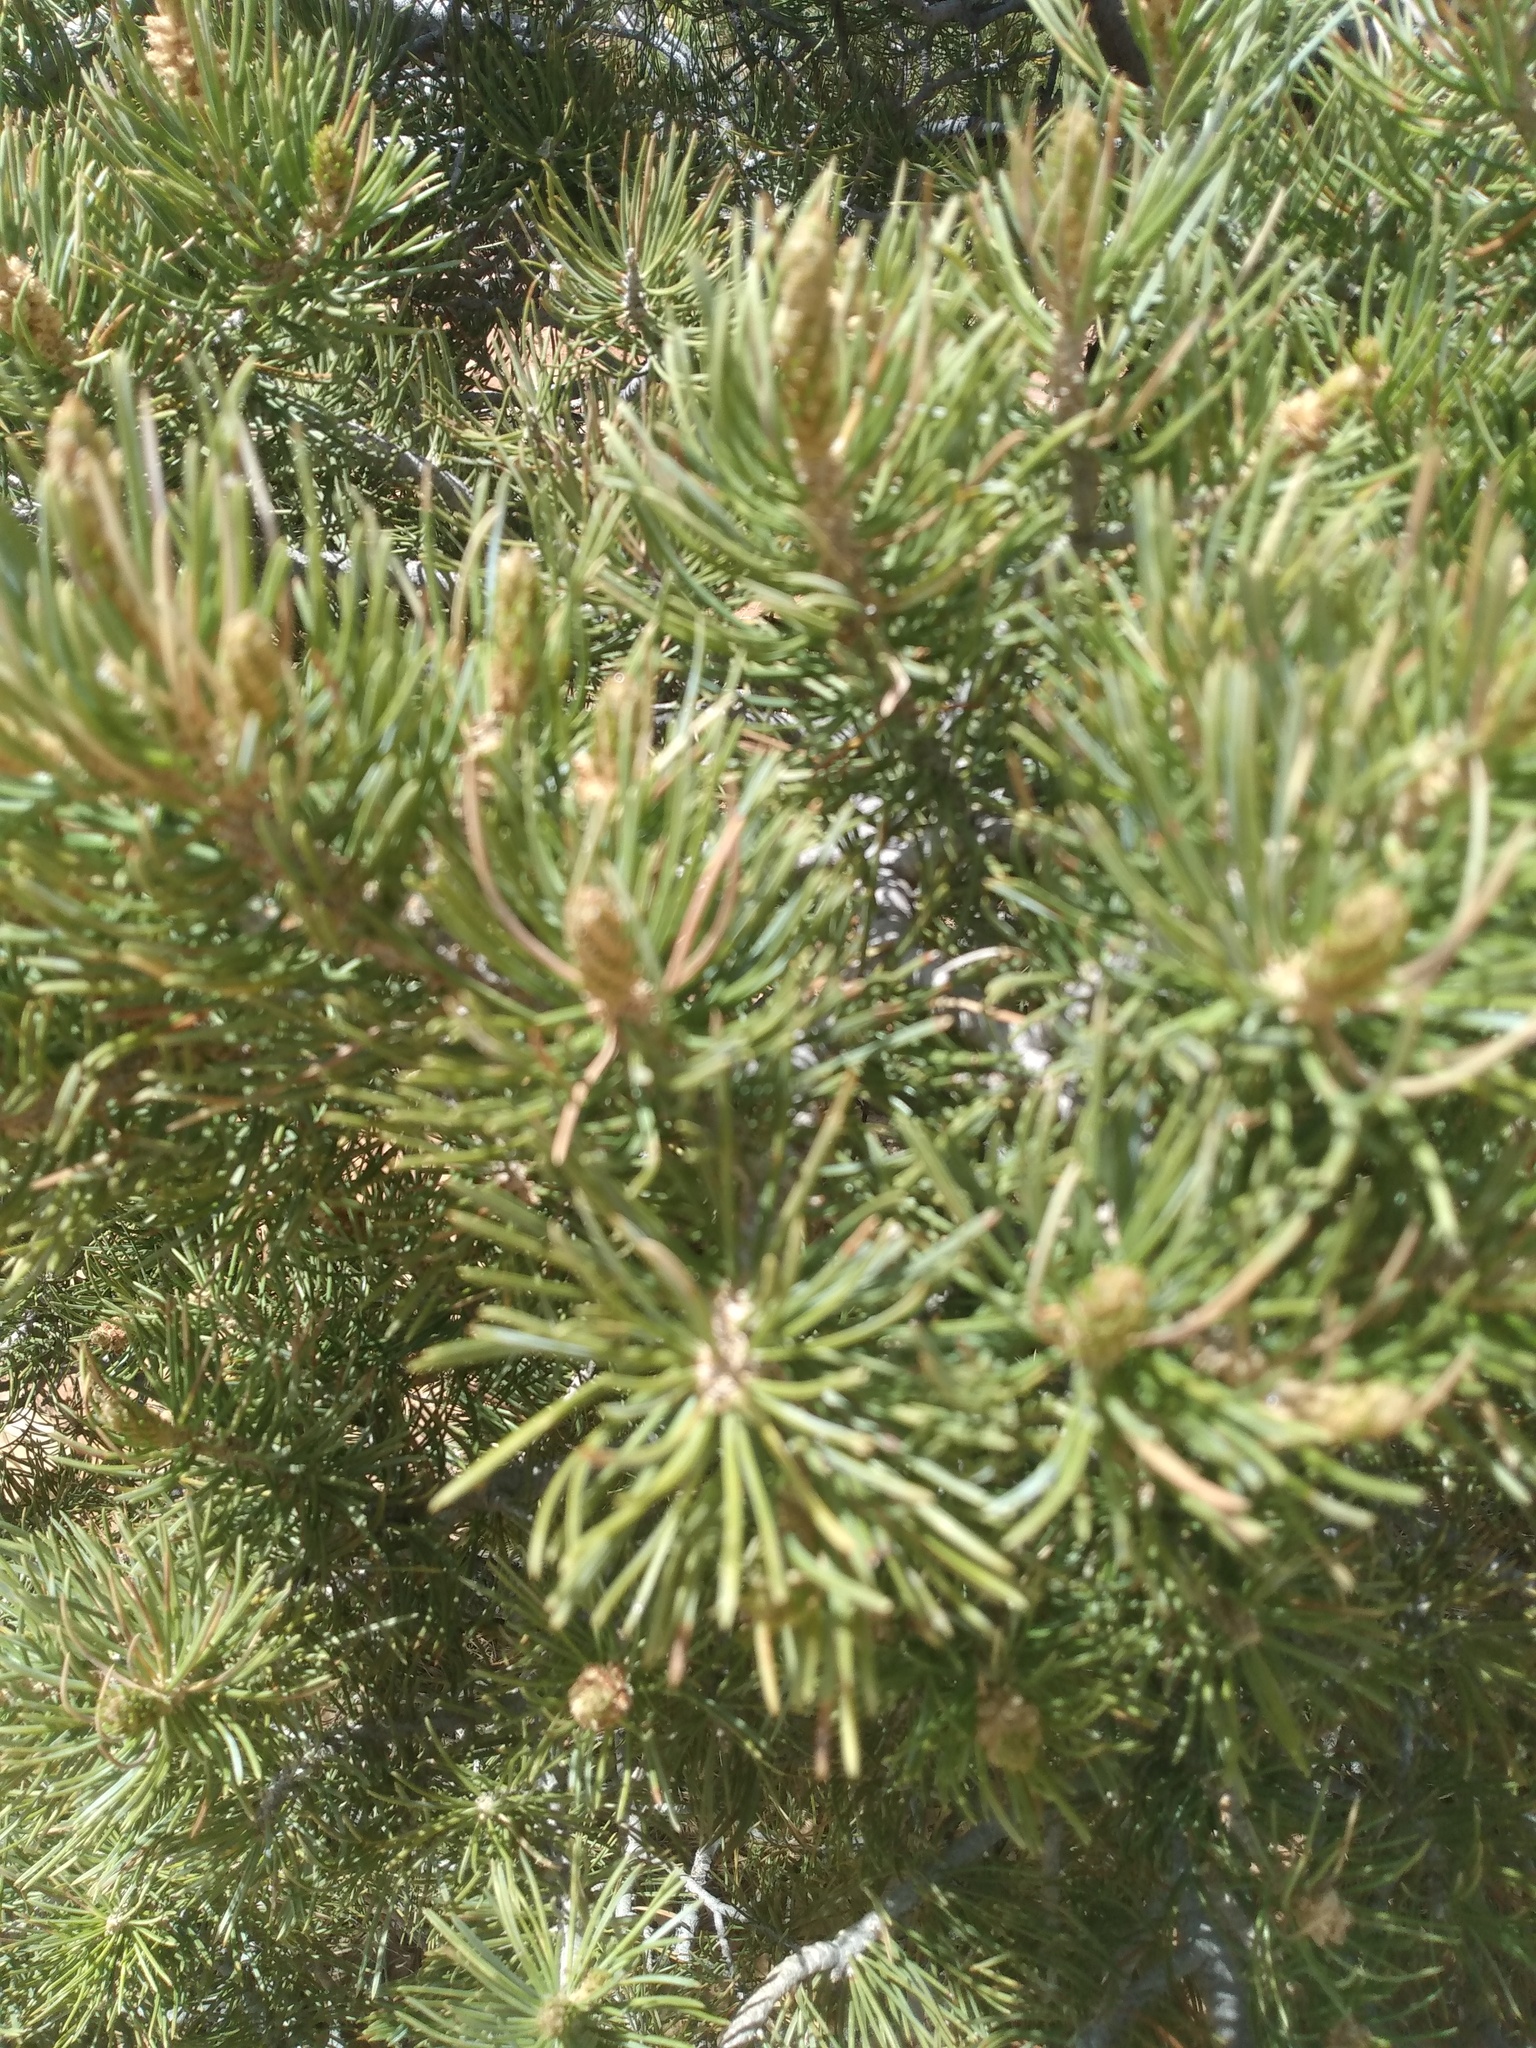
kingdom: Plantae
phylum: Tracheophyta
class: Pinopsida
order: Pinales
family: Pinaceae
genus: Pinus
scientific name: Pinus edulis
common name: Colorado pinyon
